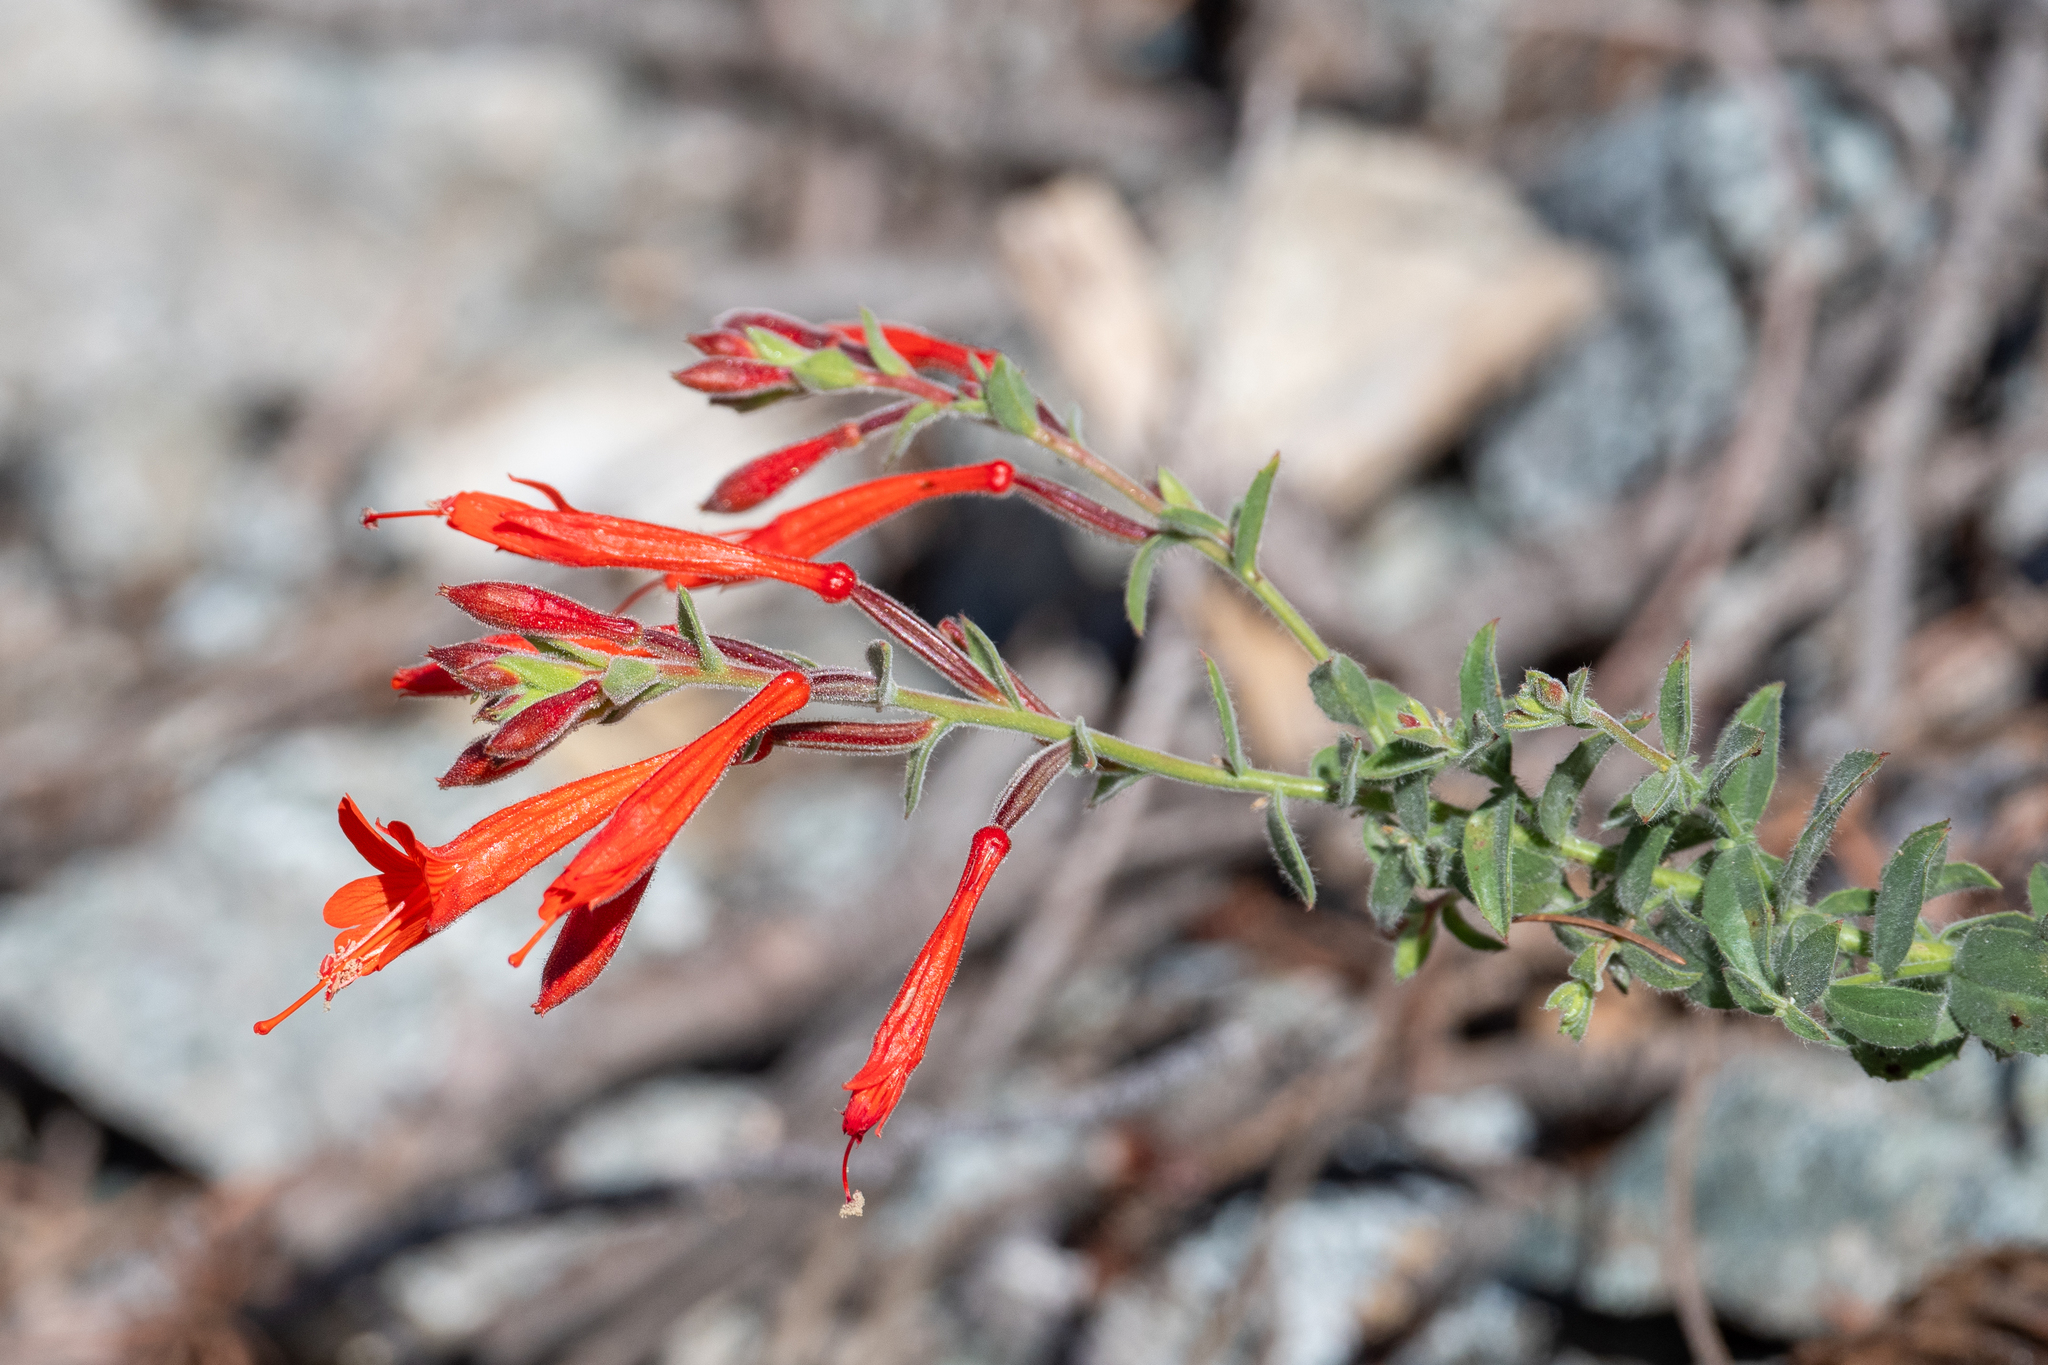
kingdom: Plantae
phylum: Tracheophyta
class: Magnoliopsida
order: Myrtales
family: Onagraceae
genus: Epilobium
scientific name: Epilobium canum
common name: California-fuchsia
